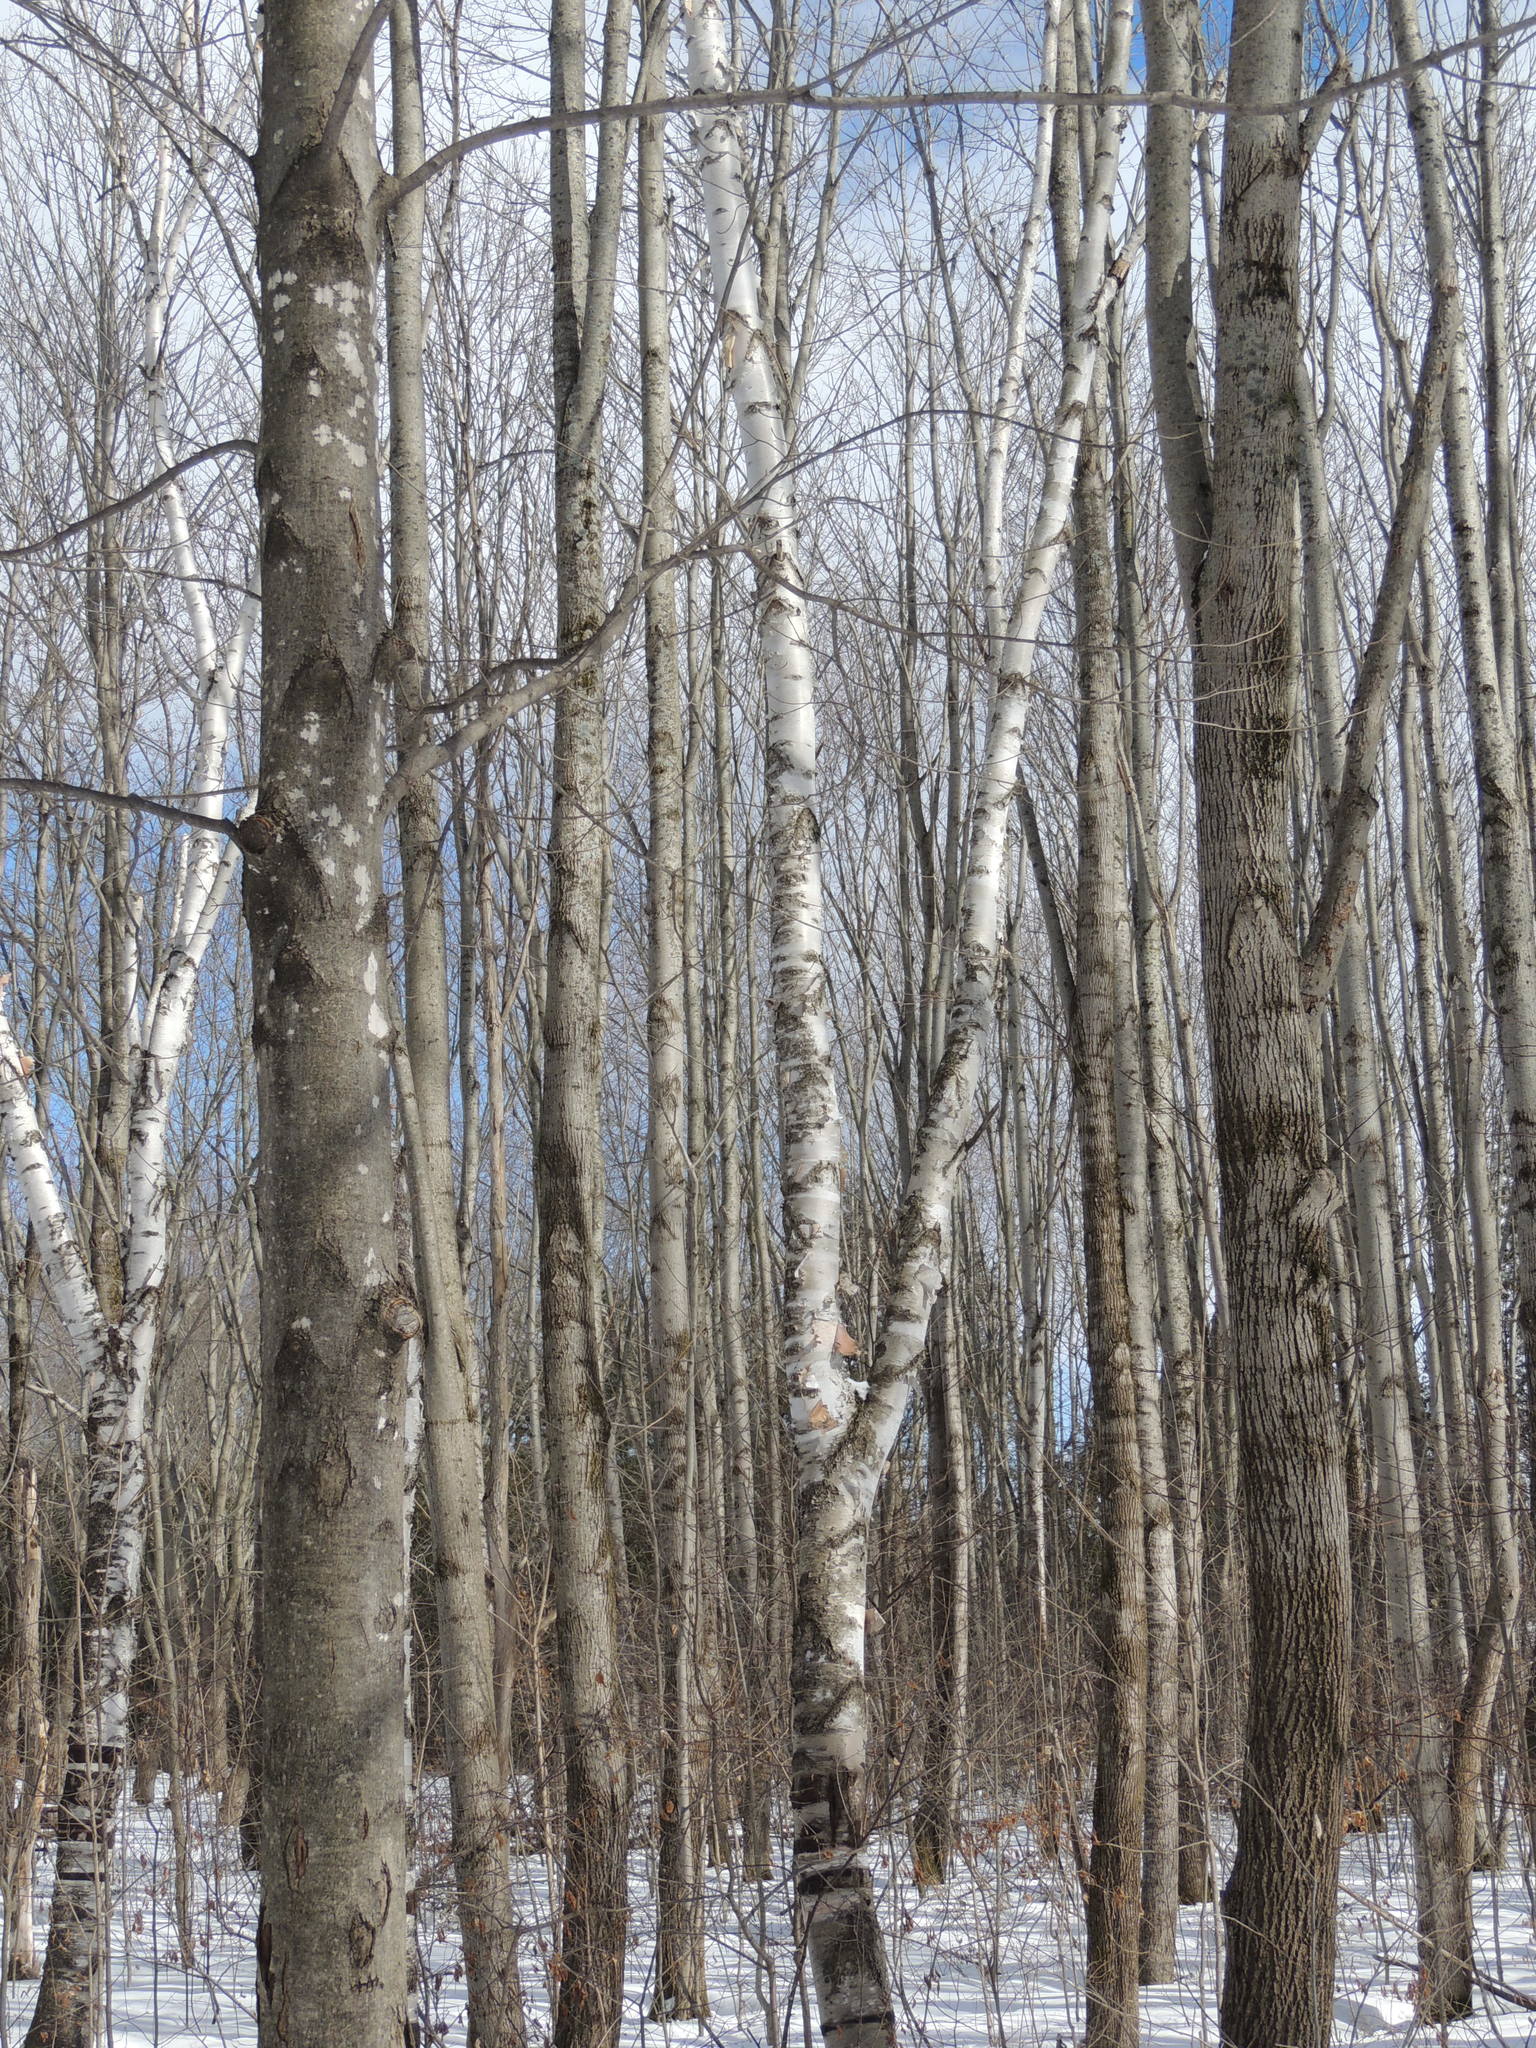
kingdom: Plantae
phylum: Tracheophyta
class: Magnoliopsida
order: Fagales
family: Betulaceae
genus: Betula
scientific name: Betula papyrifera
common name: Paper birch
